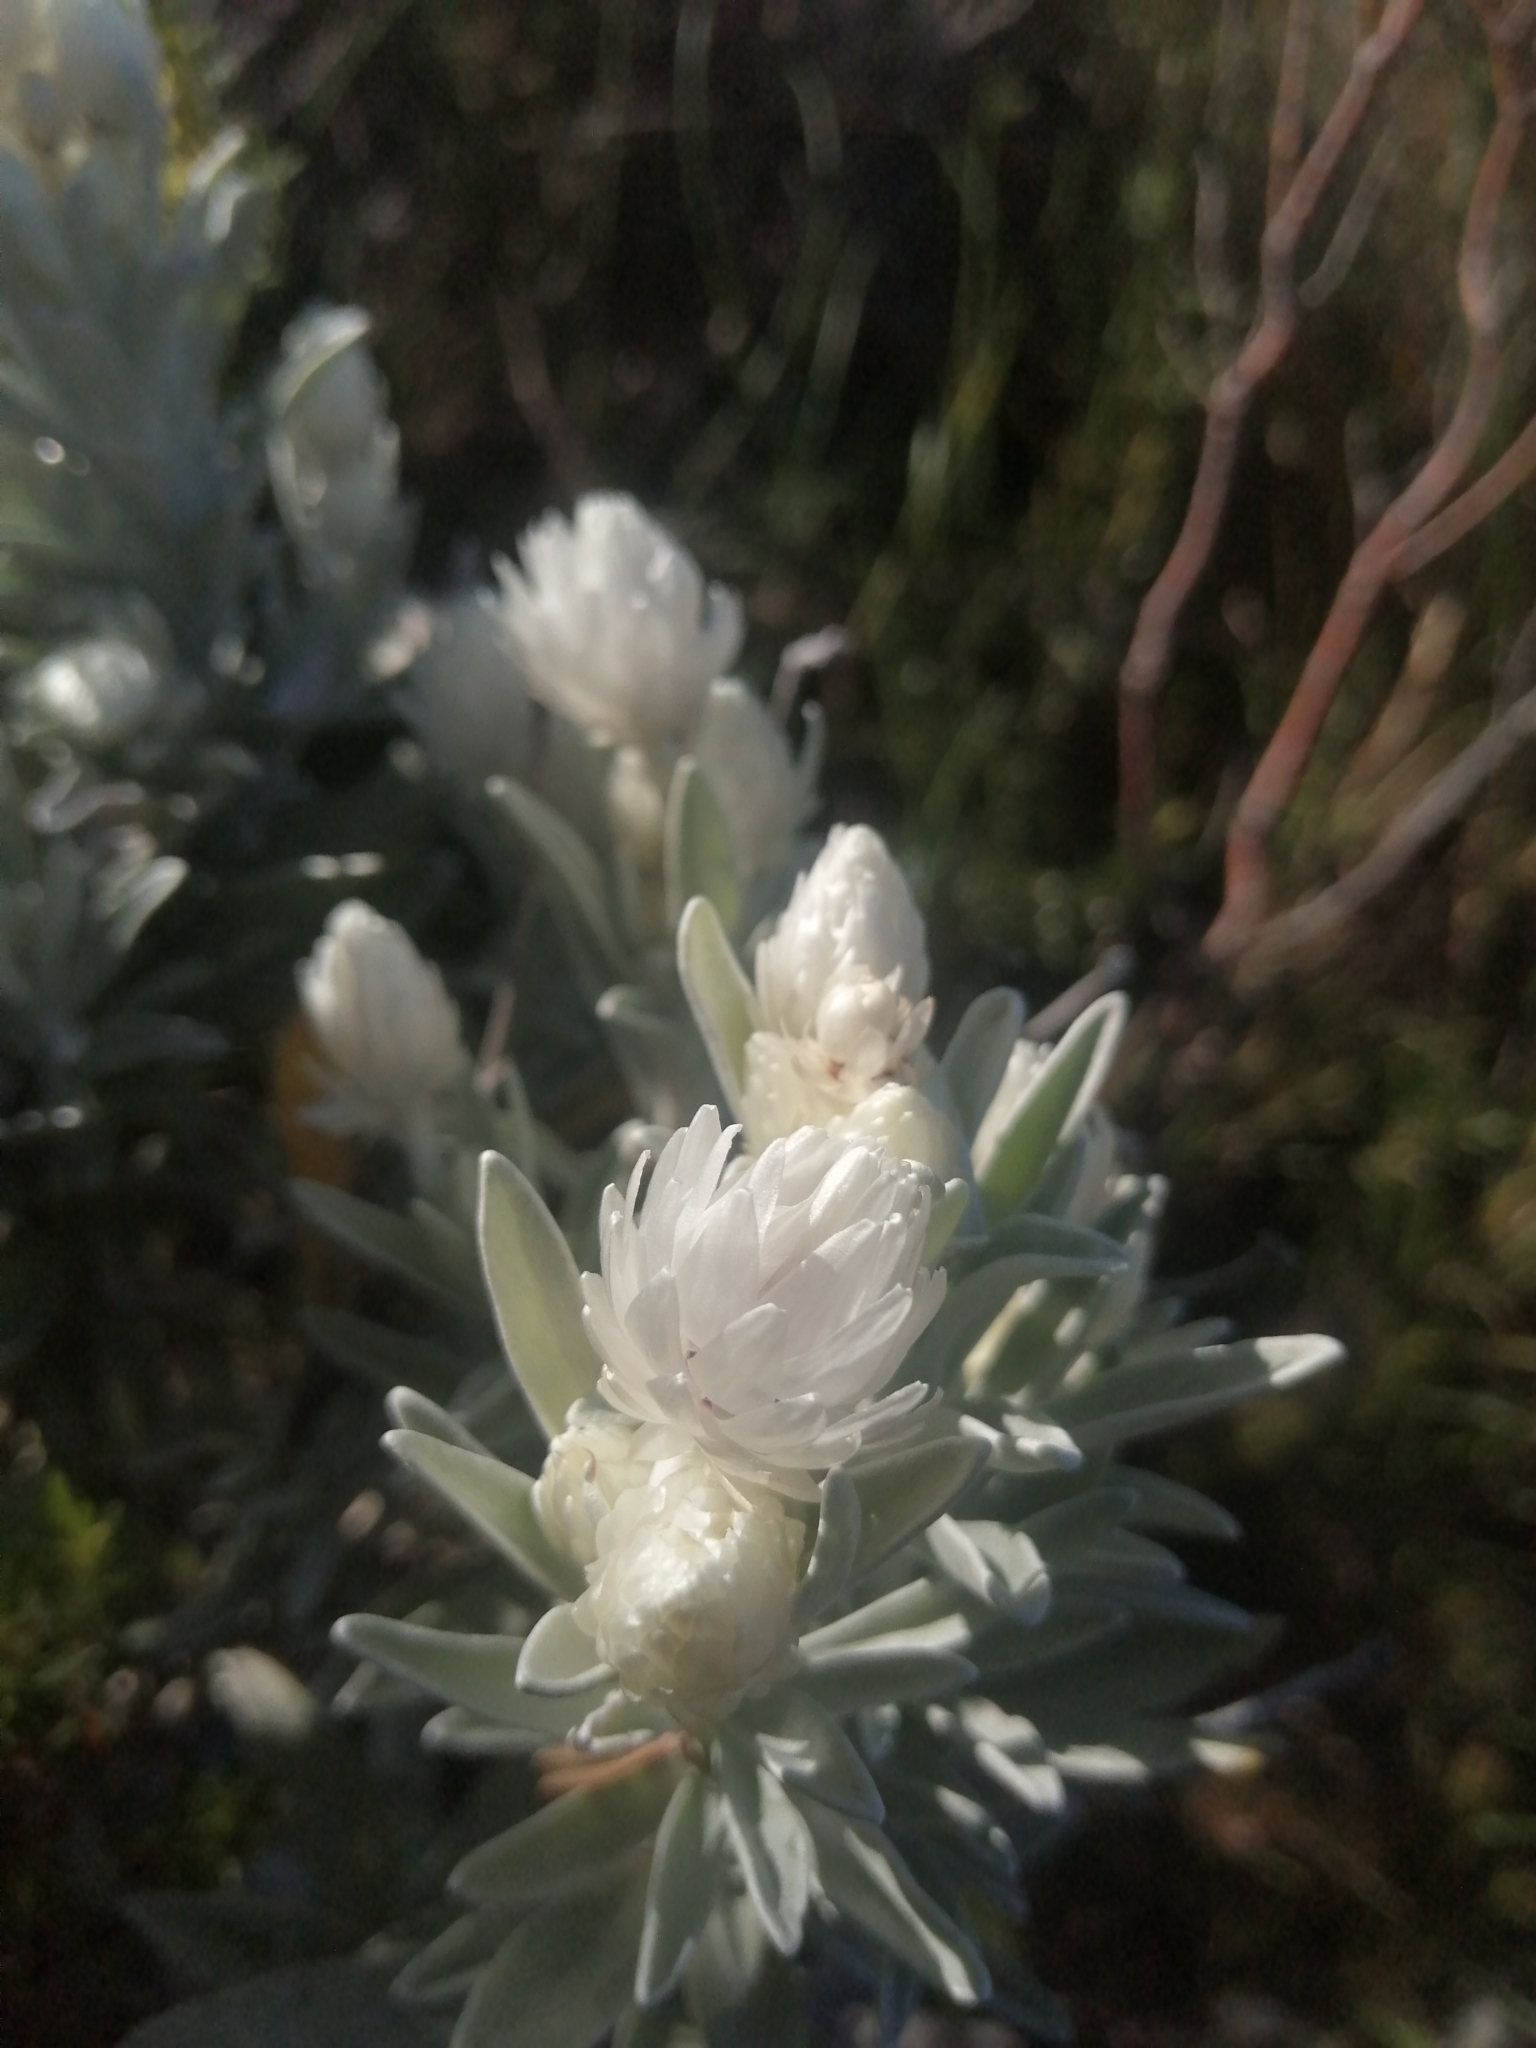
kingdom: Plantae
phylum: Tracheophyta
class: Magnoliopsida
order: Asterales
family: Asteraceae
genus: Syncarpha
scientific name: Syncarpha vestita
